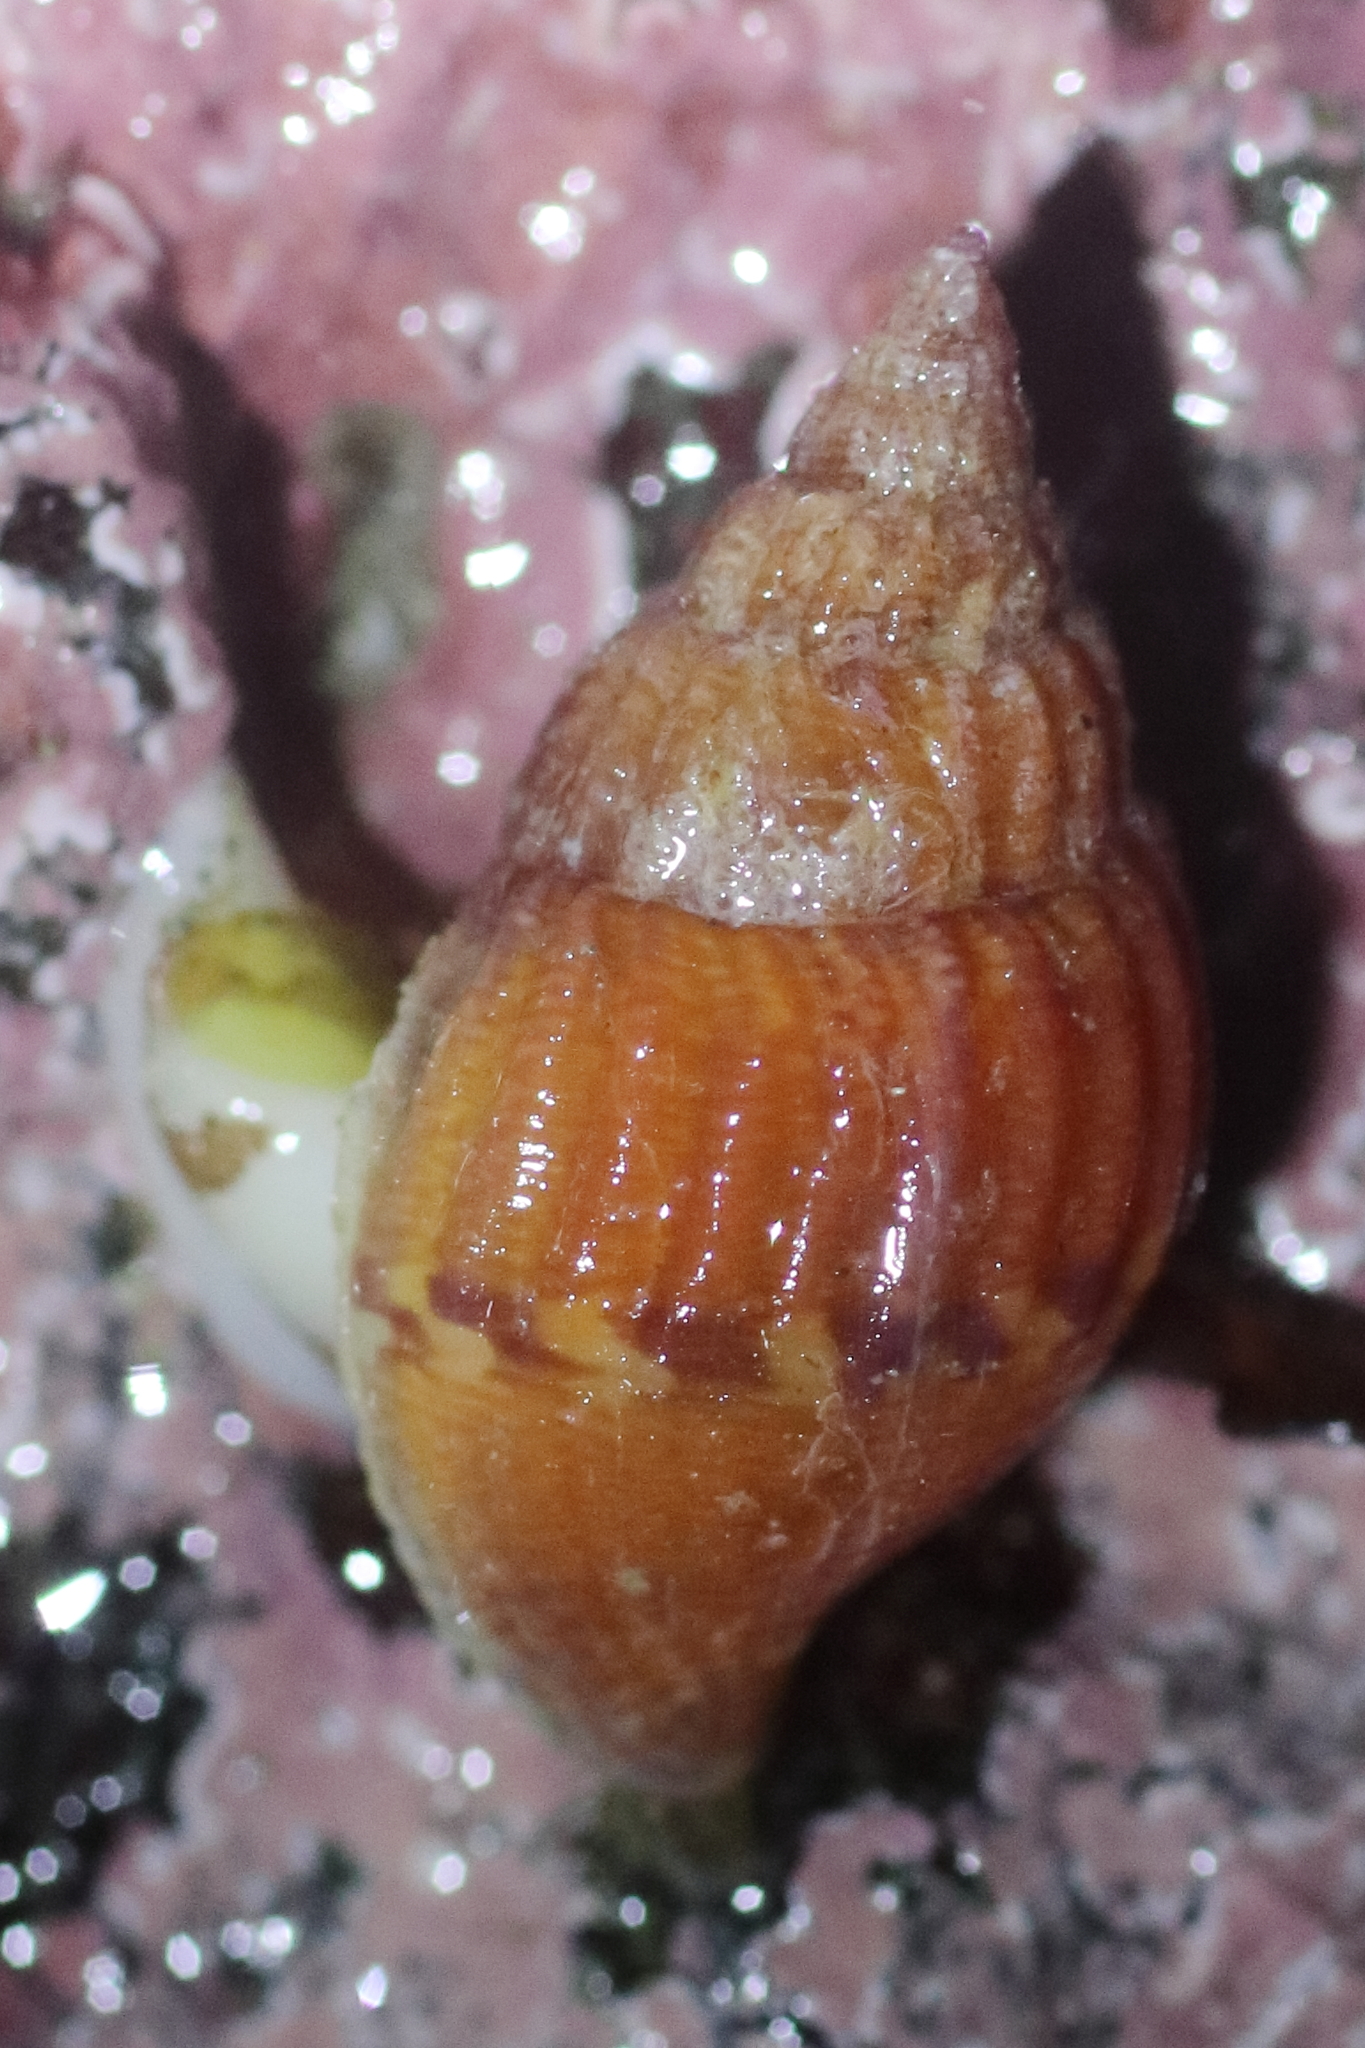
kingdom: Animalia
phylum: Mollusca
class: Gastropoda
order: Neogastropoda
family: Columbellidae
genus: Amphissa
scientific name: Amphissa columbiana
